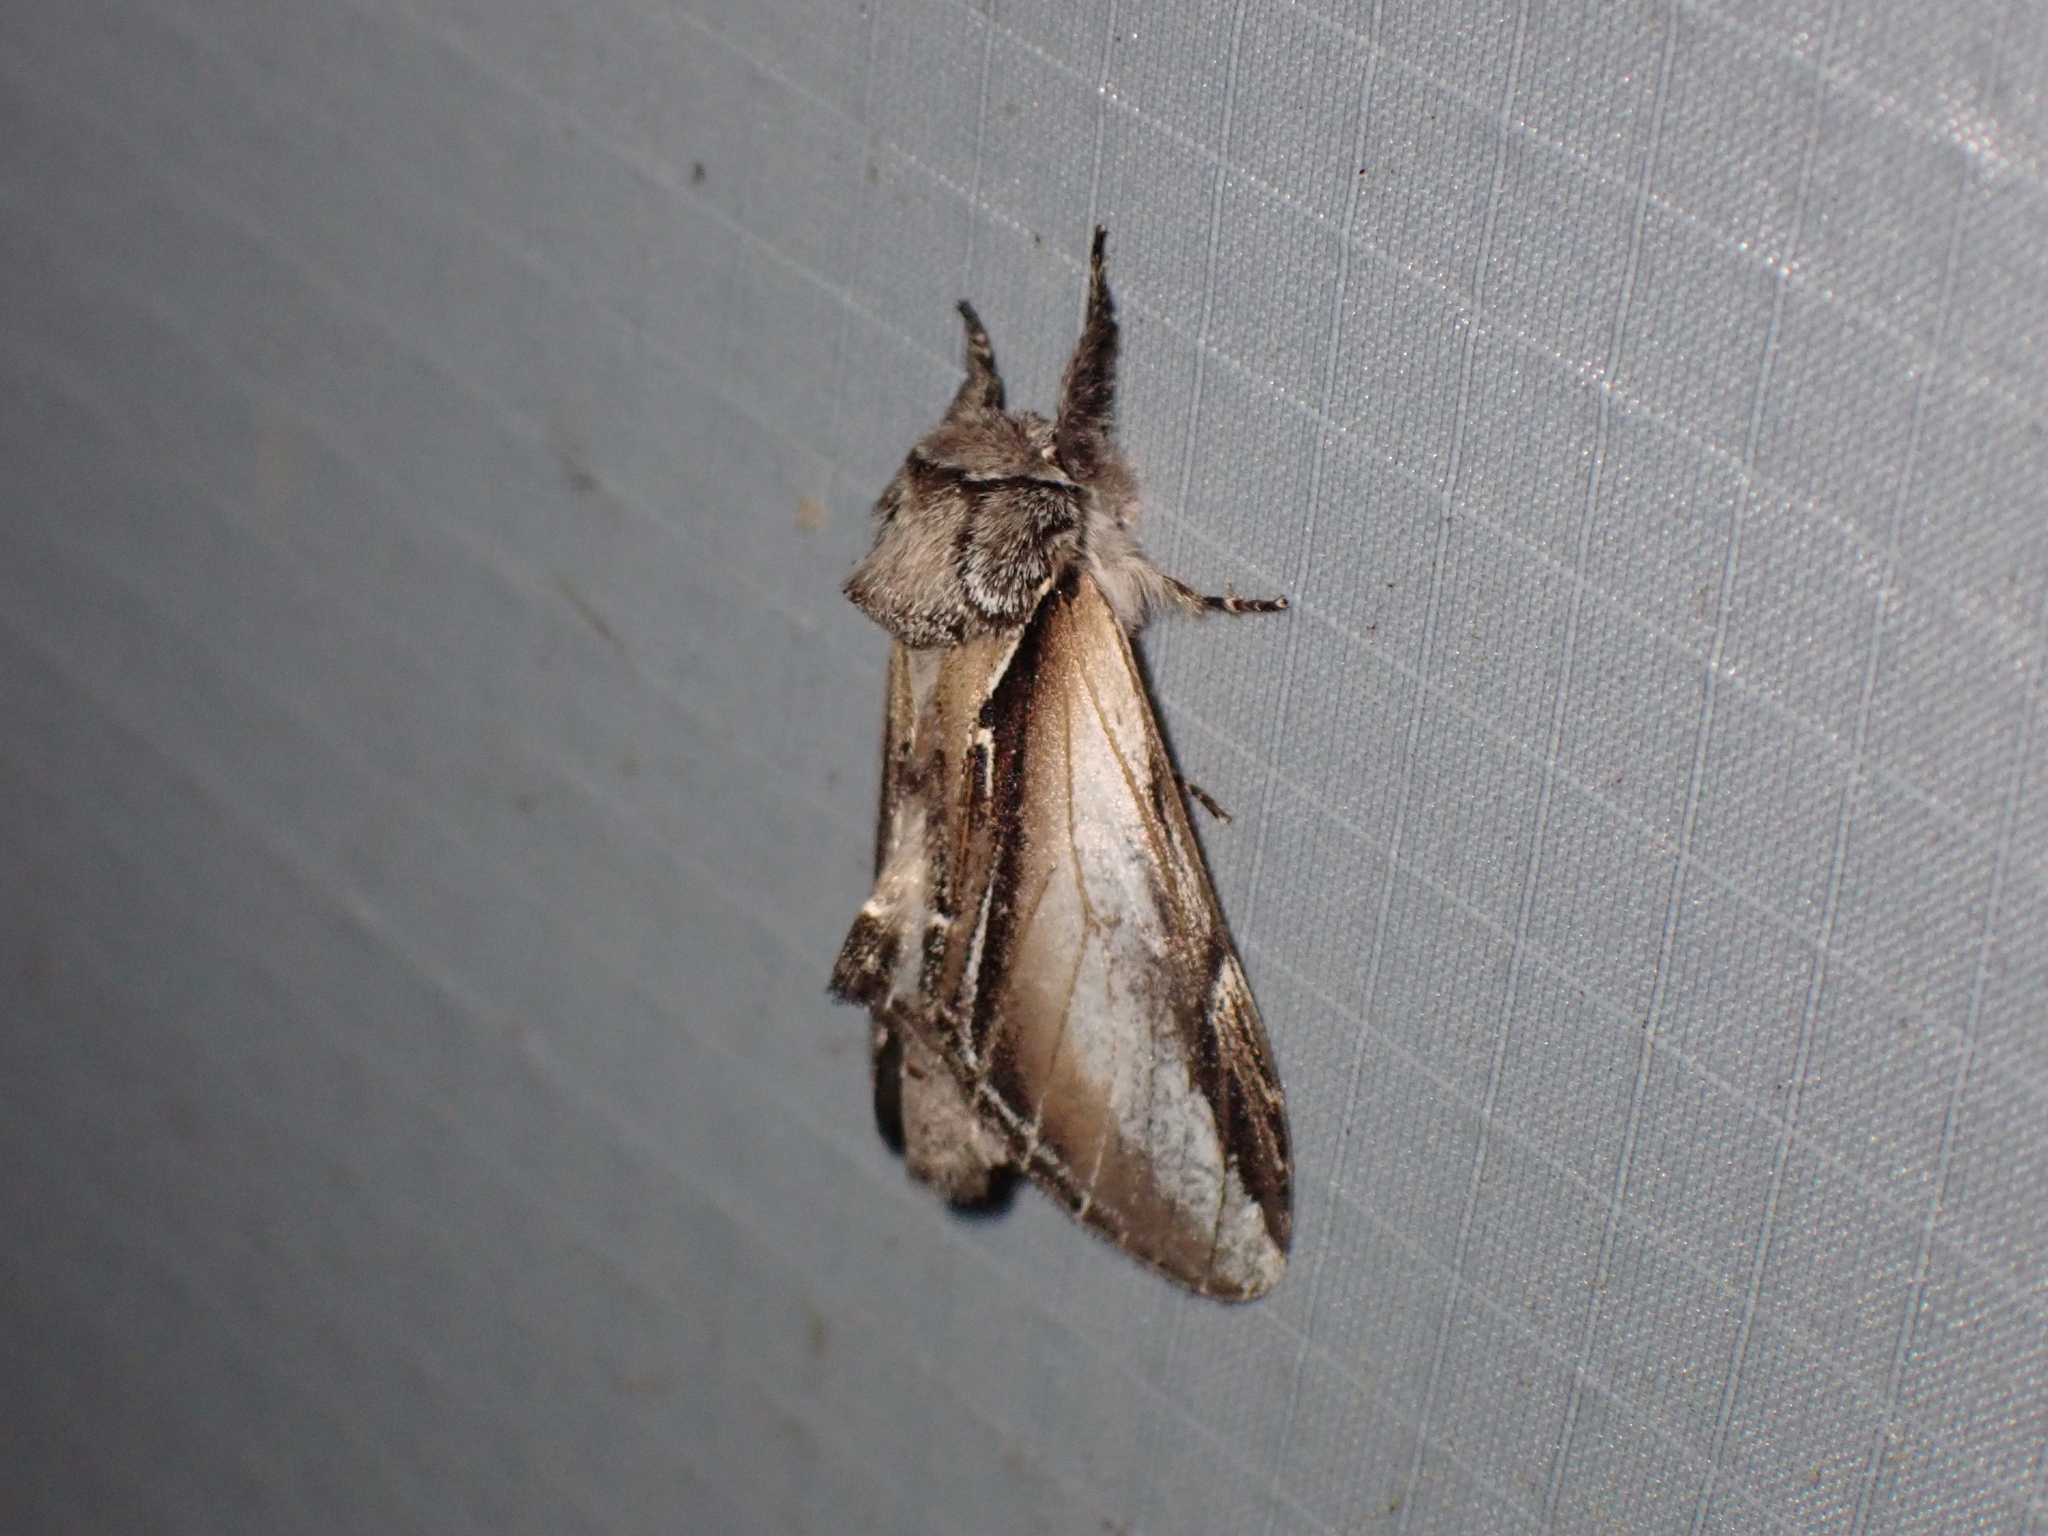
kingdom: Animalia
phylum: Arthropoda
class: Insecta
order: Lepidoptera
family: Notodontidae
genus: Pheosia
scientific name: Pheosia rimosa
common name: Black-rimmed prominent
